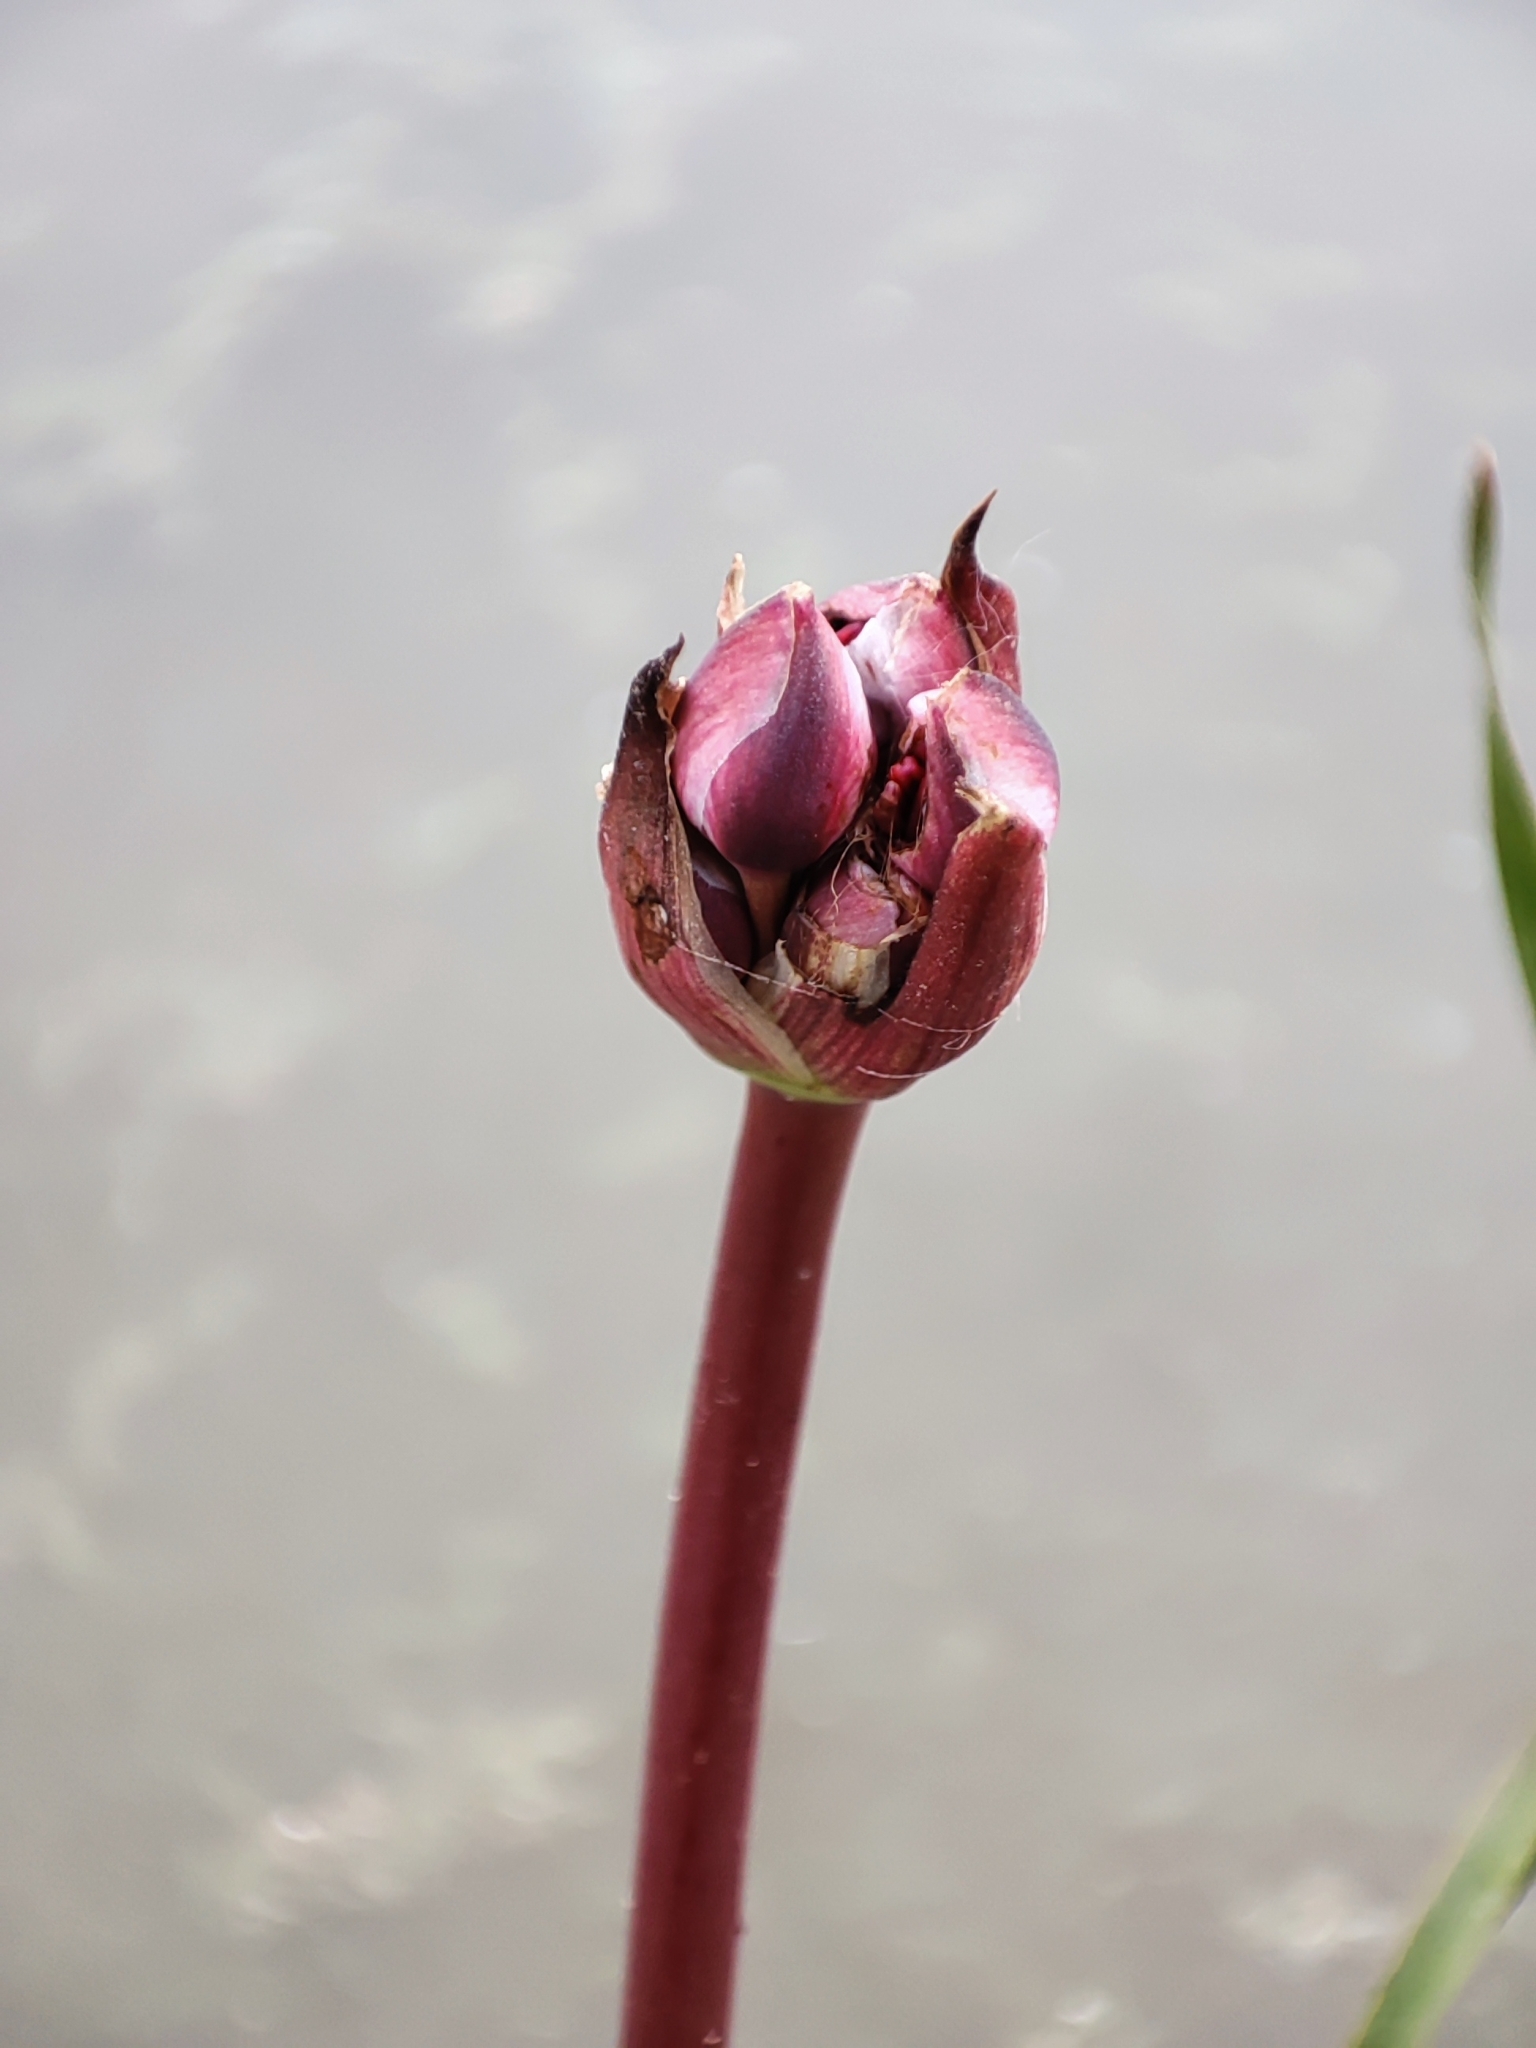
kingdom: Plantae
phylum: Tracheophyta
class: Liliopsida
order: Alismatales
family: Butomaceae
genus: Butomus
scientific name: Butomus umbellatus
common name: Flowering-rush
